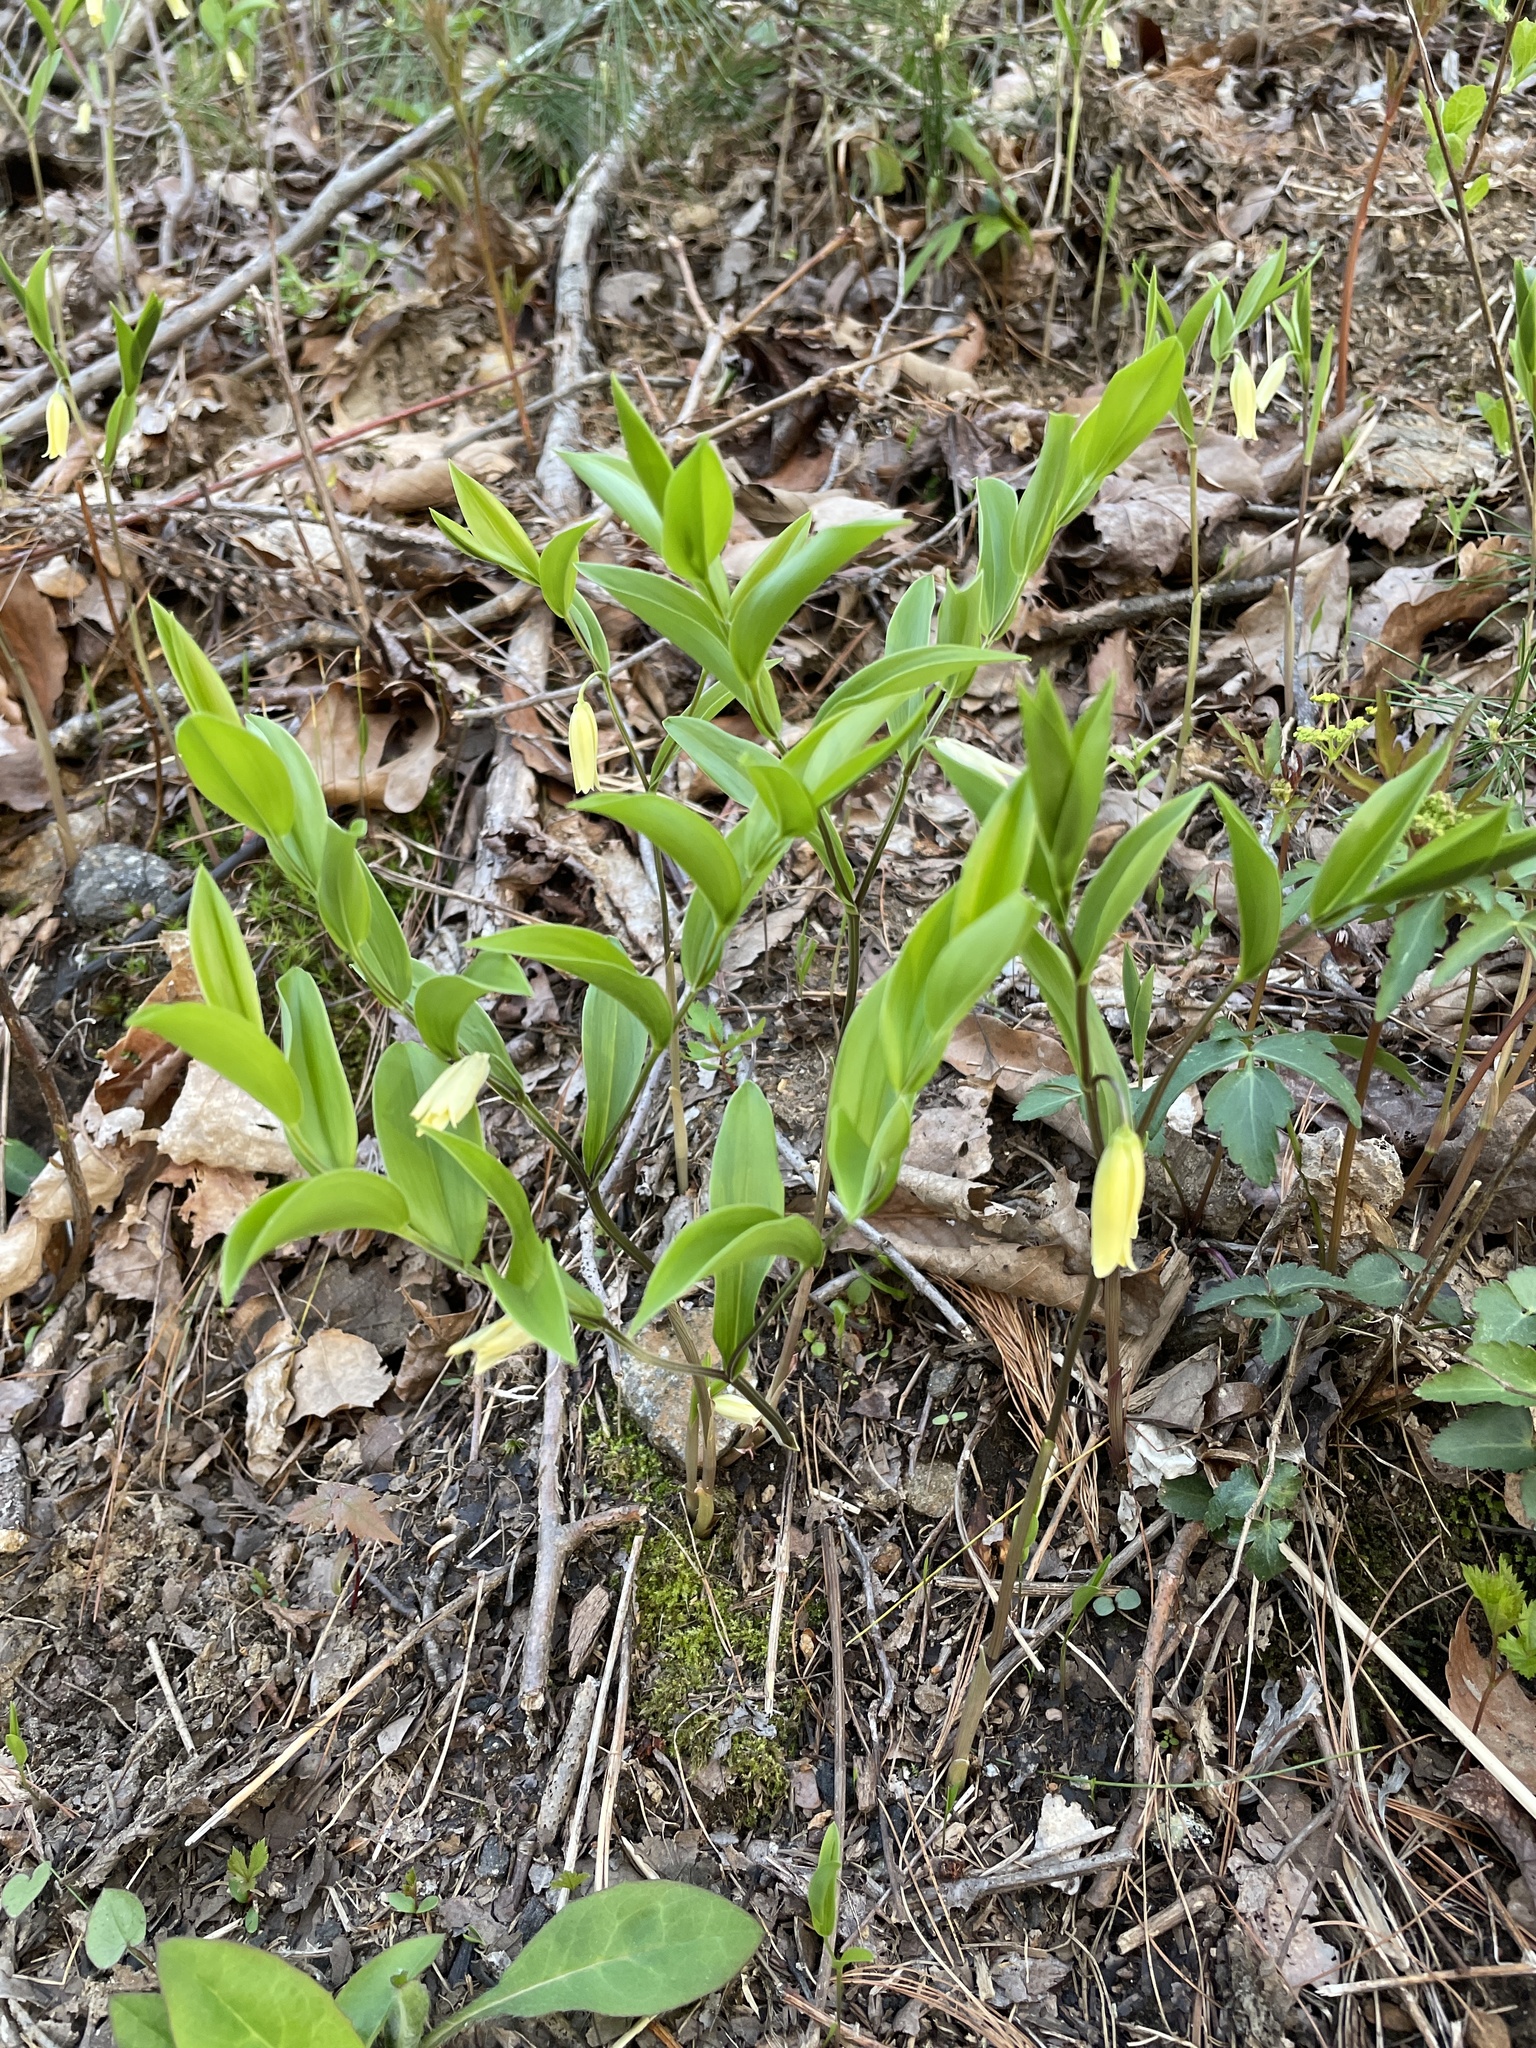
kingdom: Plantae
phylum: Tracheophyta
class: Liliopsida
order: Liliales
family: Colchicaceae
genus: Uvularia
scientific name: Uvularia puberula
